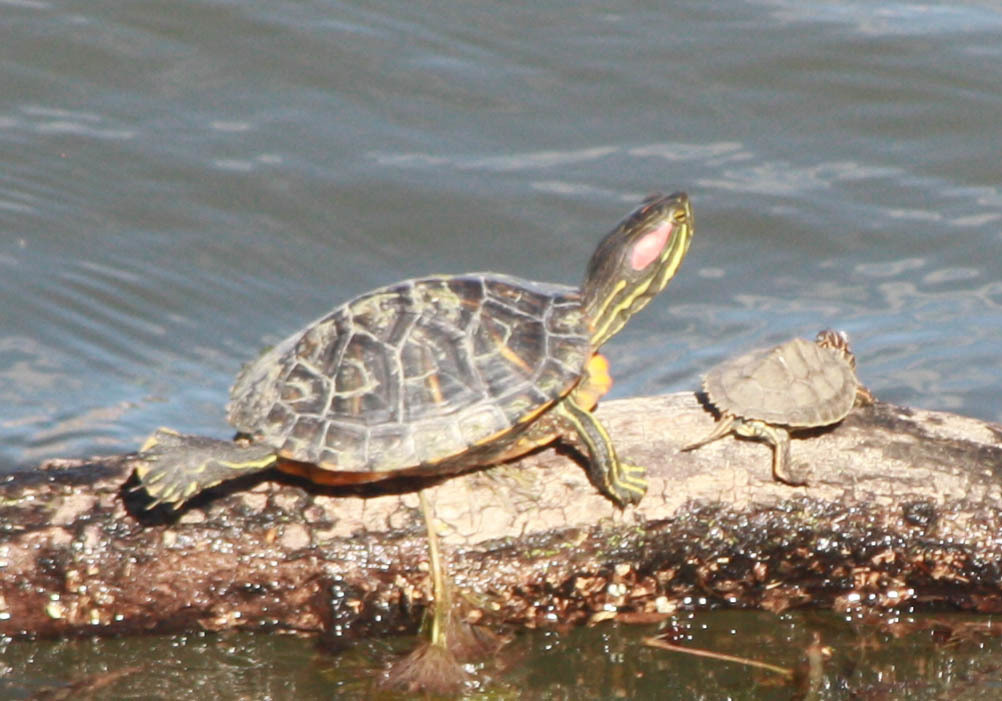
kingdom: Animalia
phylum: Chordata
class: Testudines
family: Emydidae
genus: Trachemys
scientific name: Trachemys scripta
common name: Slider
